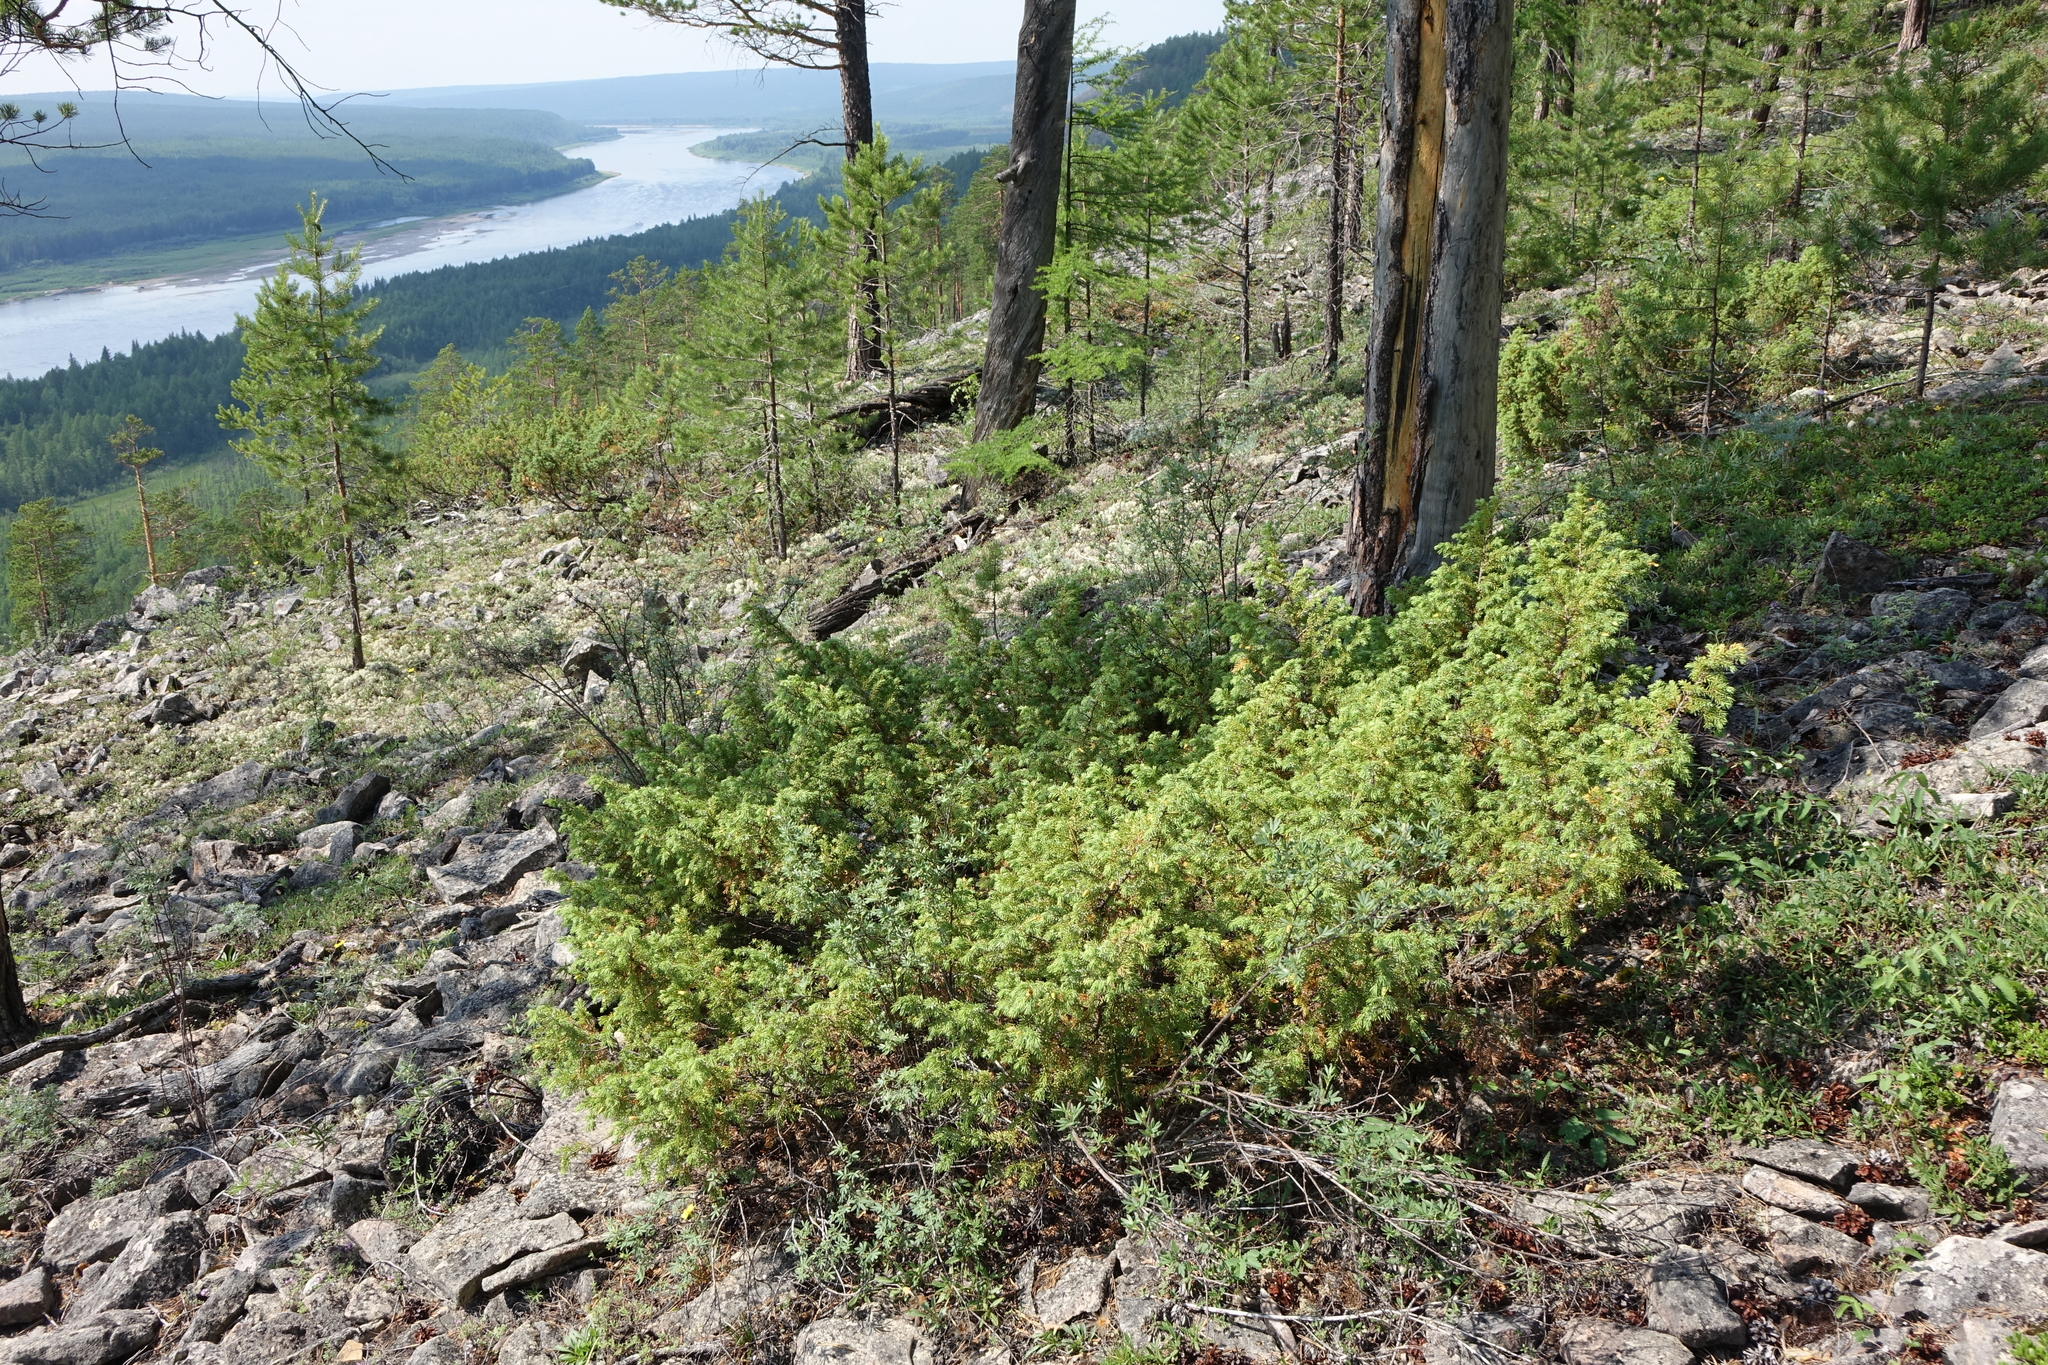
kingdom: Plantae
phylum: Tracheophyta
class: Pinopsida
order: Pinales
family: Cupressaceae
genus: Juniperus
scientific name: Juniperus communis
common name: Common juniper
